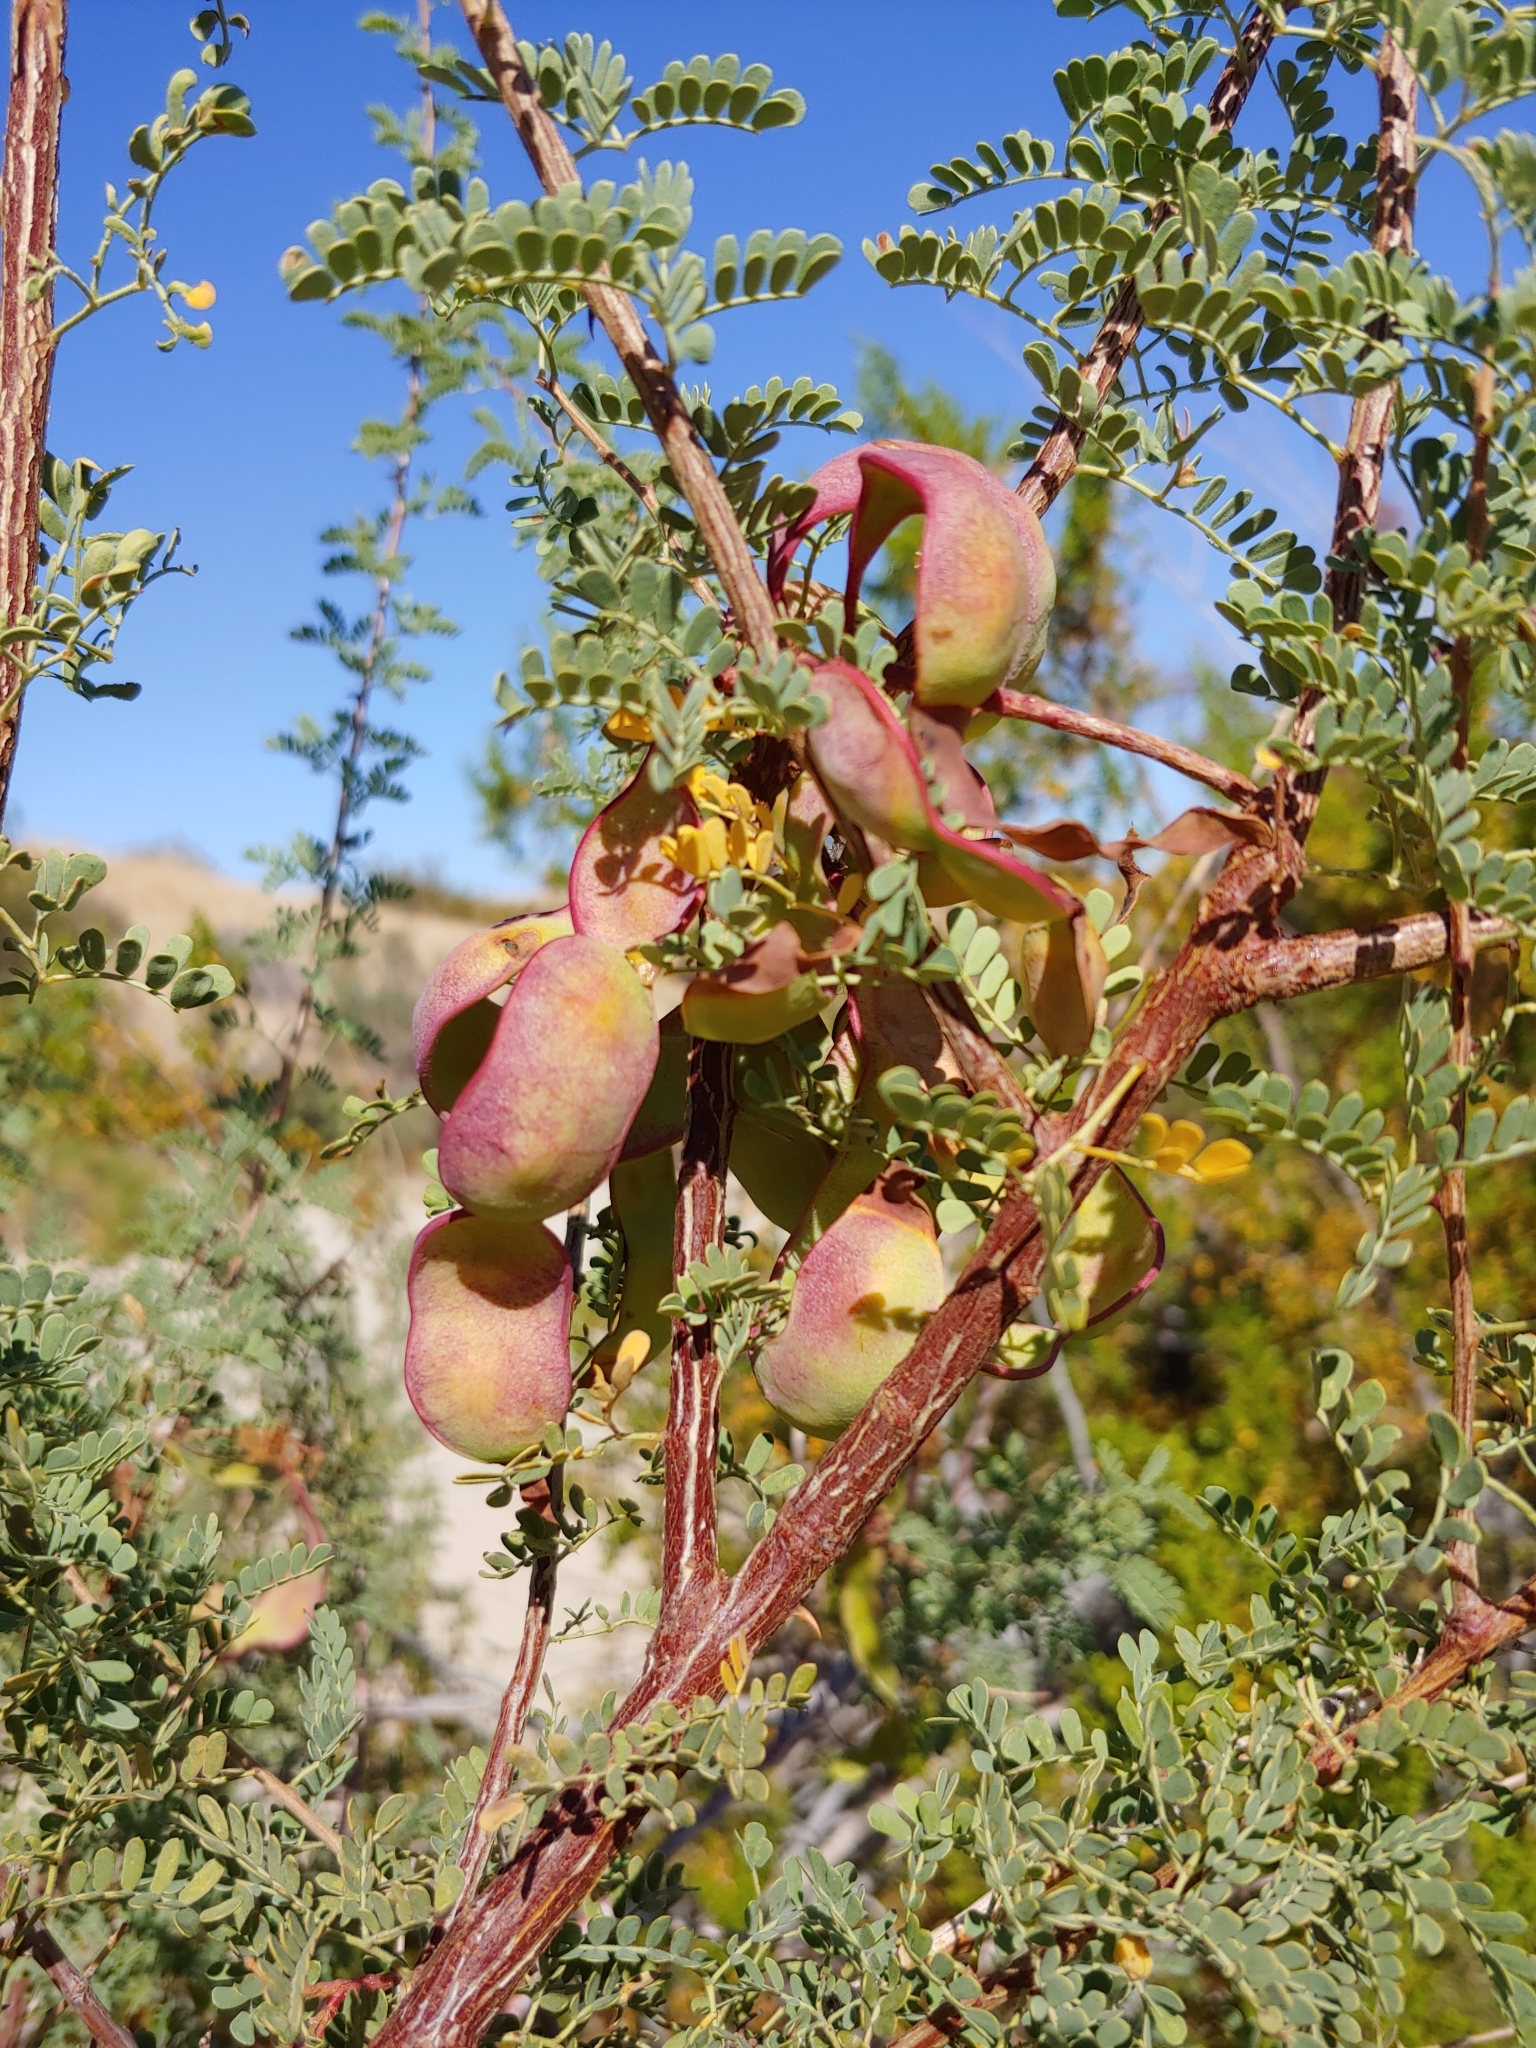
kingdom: Plantae
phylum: Tracheophyta
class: Magnoliopsida
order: Fabales
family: Fabaceae
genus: Senegalia
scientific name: Senegalia greggii
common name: Texas-mimosa
